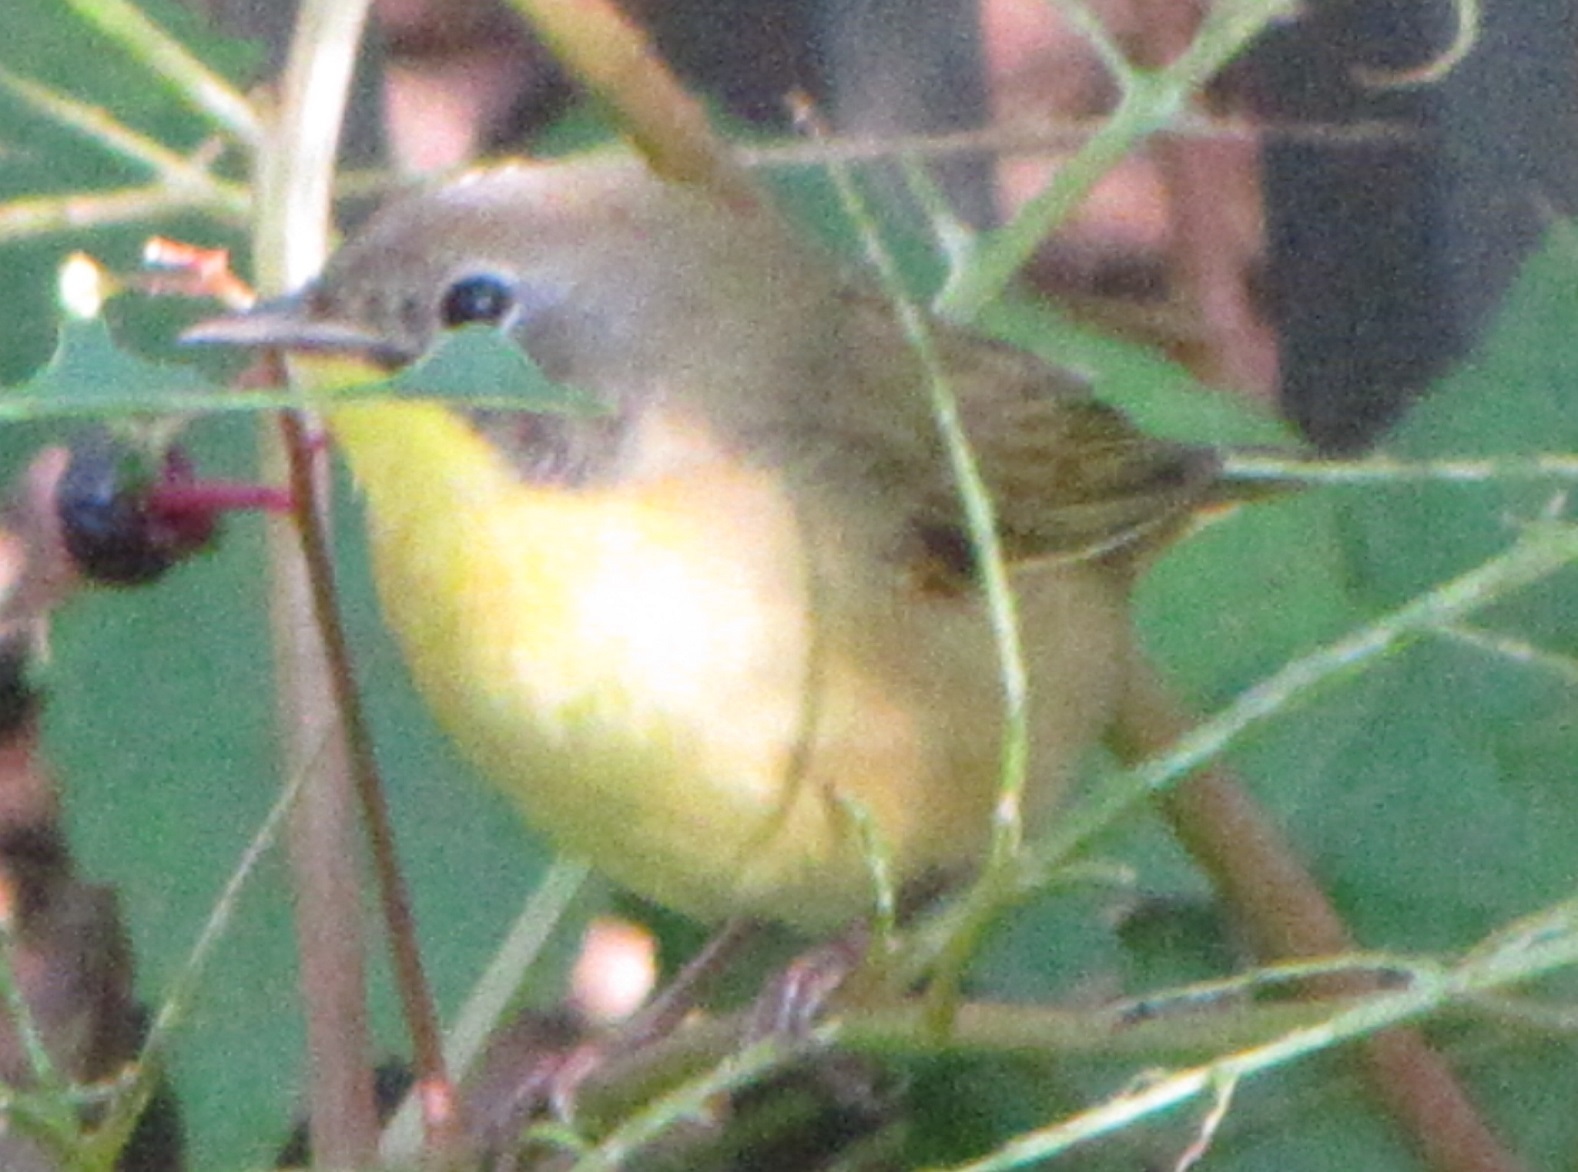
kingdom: Animalia
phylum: Chordata
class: Aves
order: Passeriformes
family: Parulidae
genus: Geothlypis
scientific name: Geothlypis trichas
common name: Common yellowthroat
